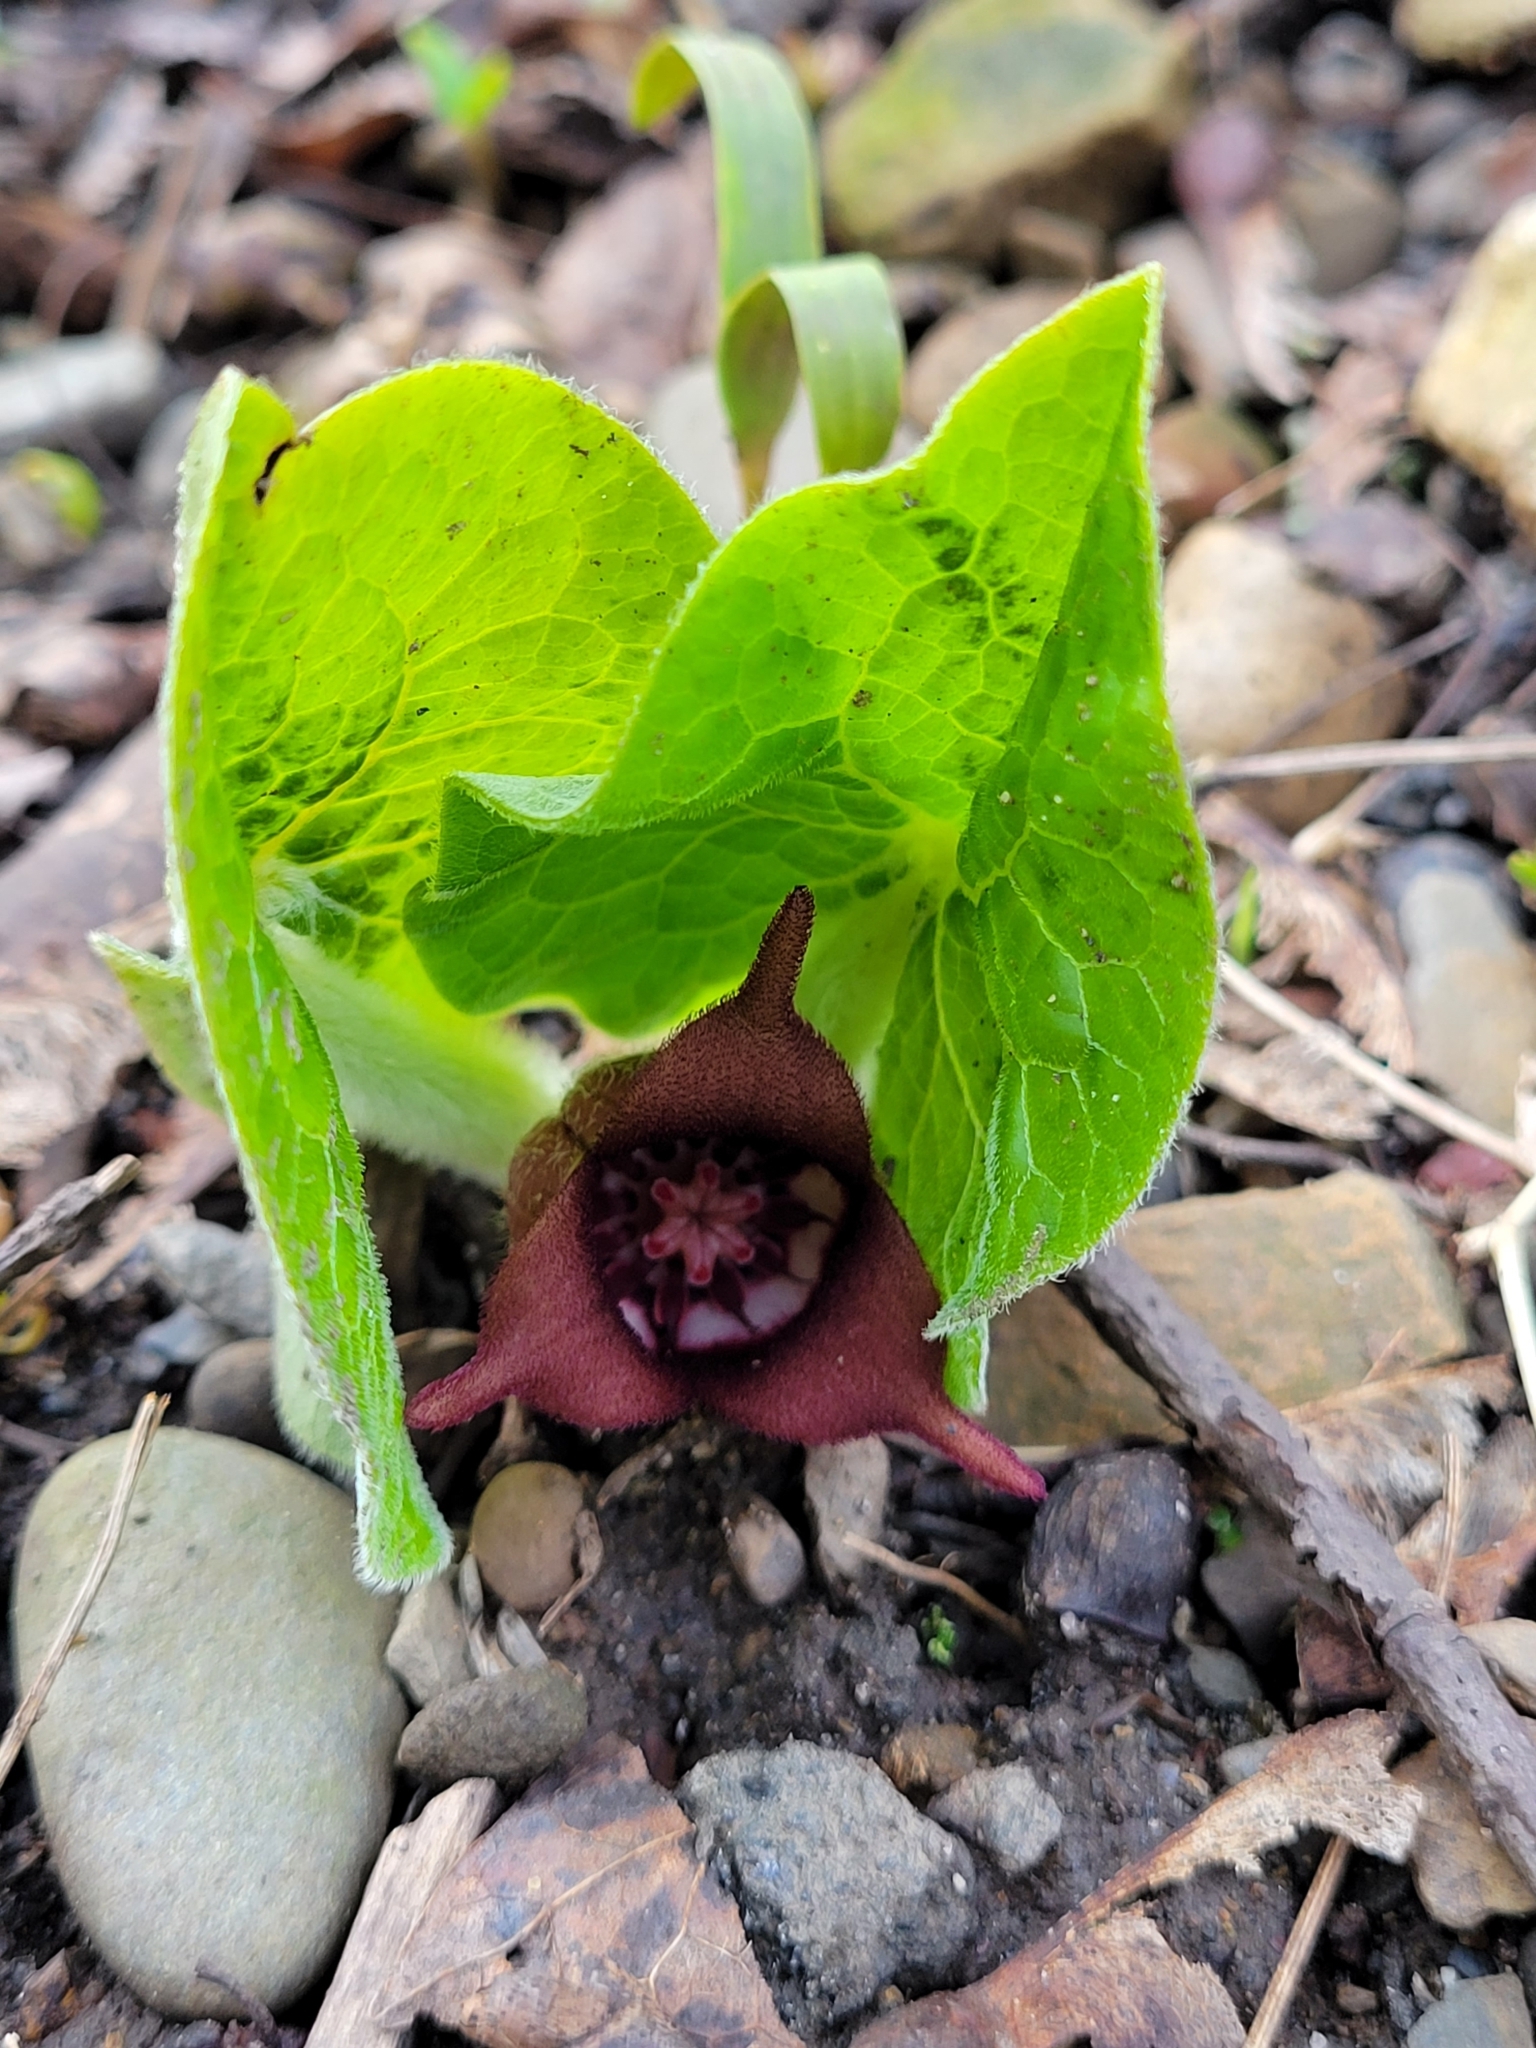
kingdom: Plantae
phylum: Tracheophyta
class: Magnoliopsida
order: Piperales
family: Aristolochiaceae
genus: Asarum
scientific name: Asarum canadense
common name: Wild ginger
